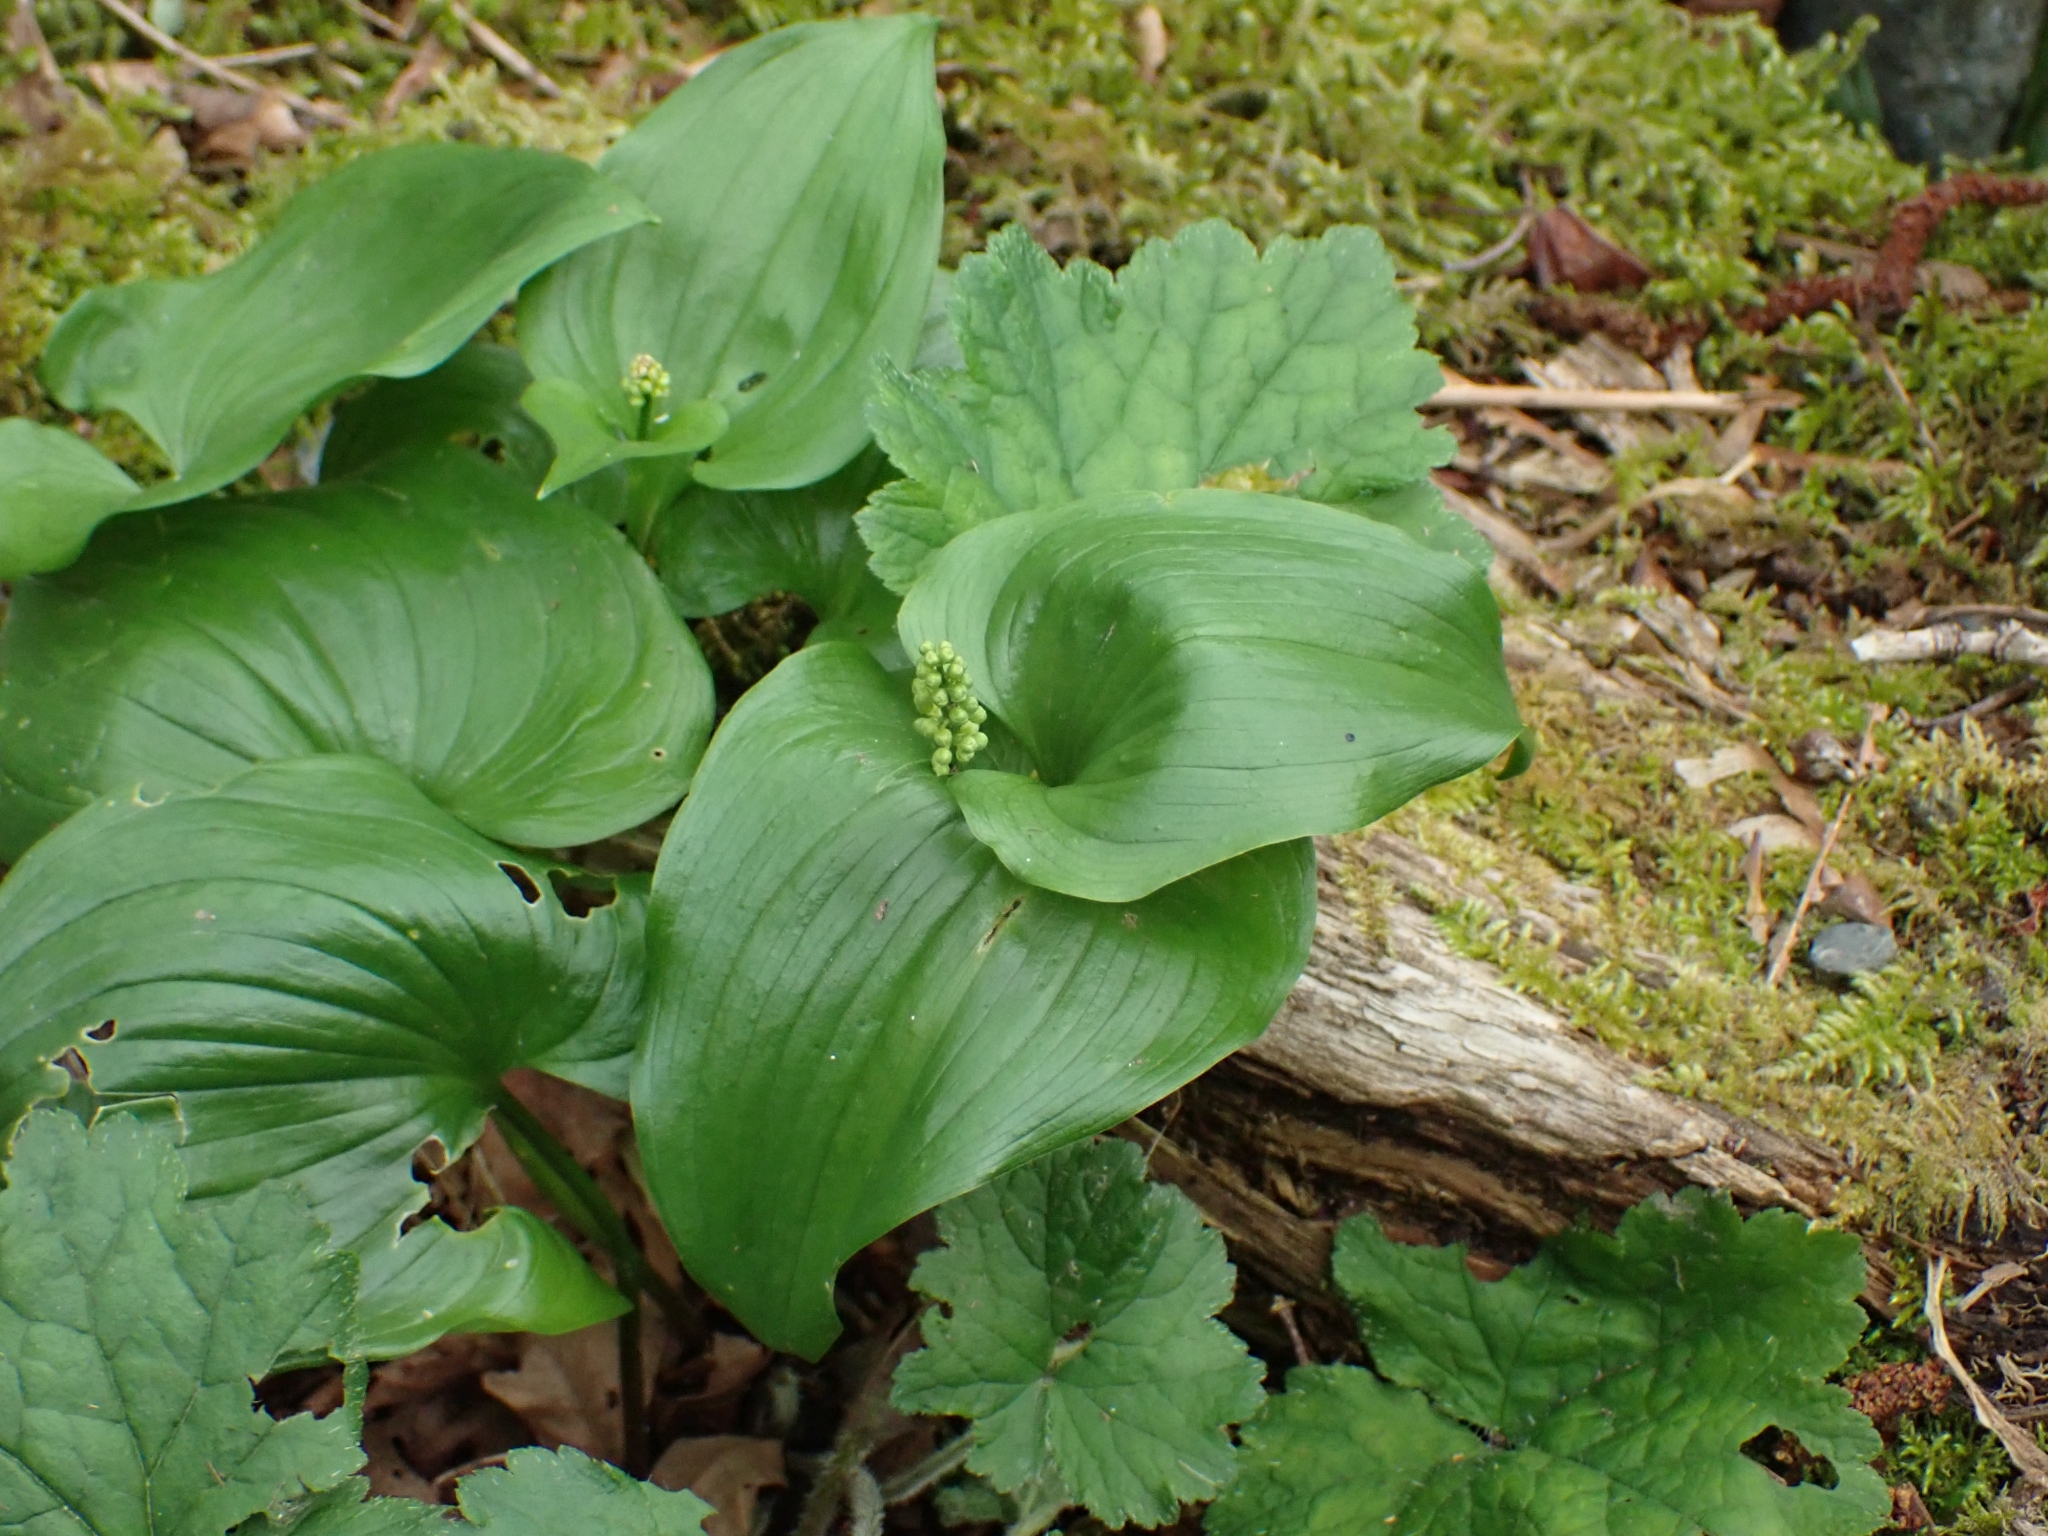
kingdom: Plantae
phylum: Tracheophyta
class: Liliopsida
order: Asparagales
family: Asparagaceae
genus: Maianthemum
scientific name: Maianthemum dilatatum
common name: False lily-of-the-valley
